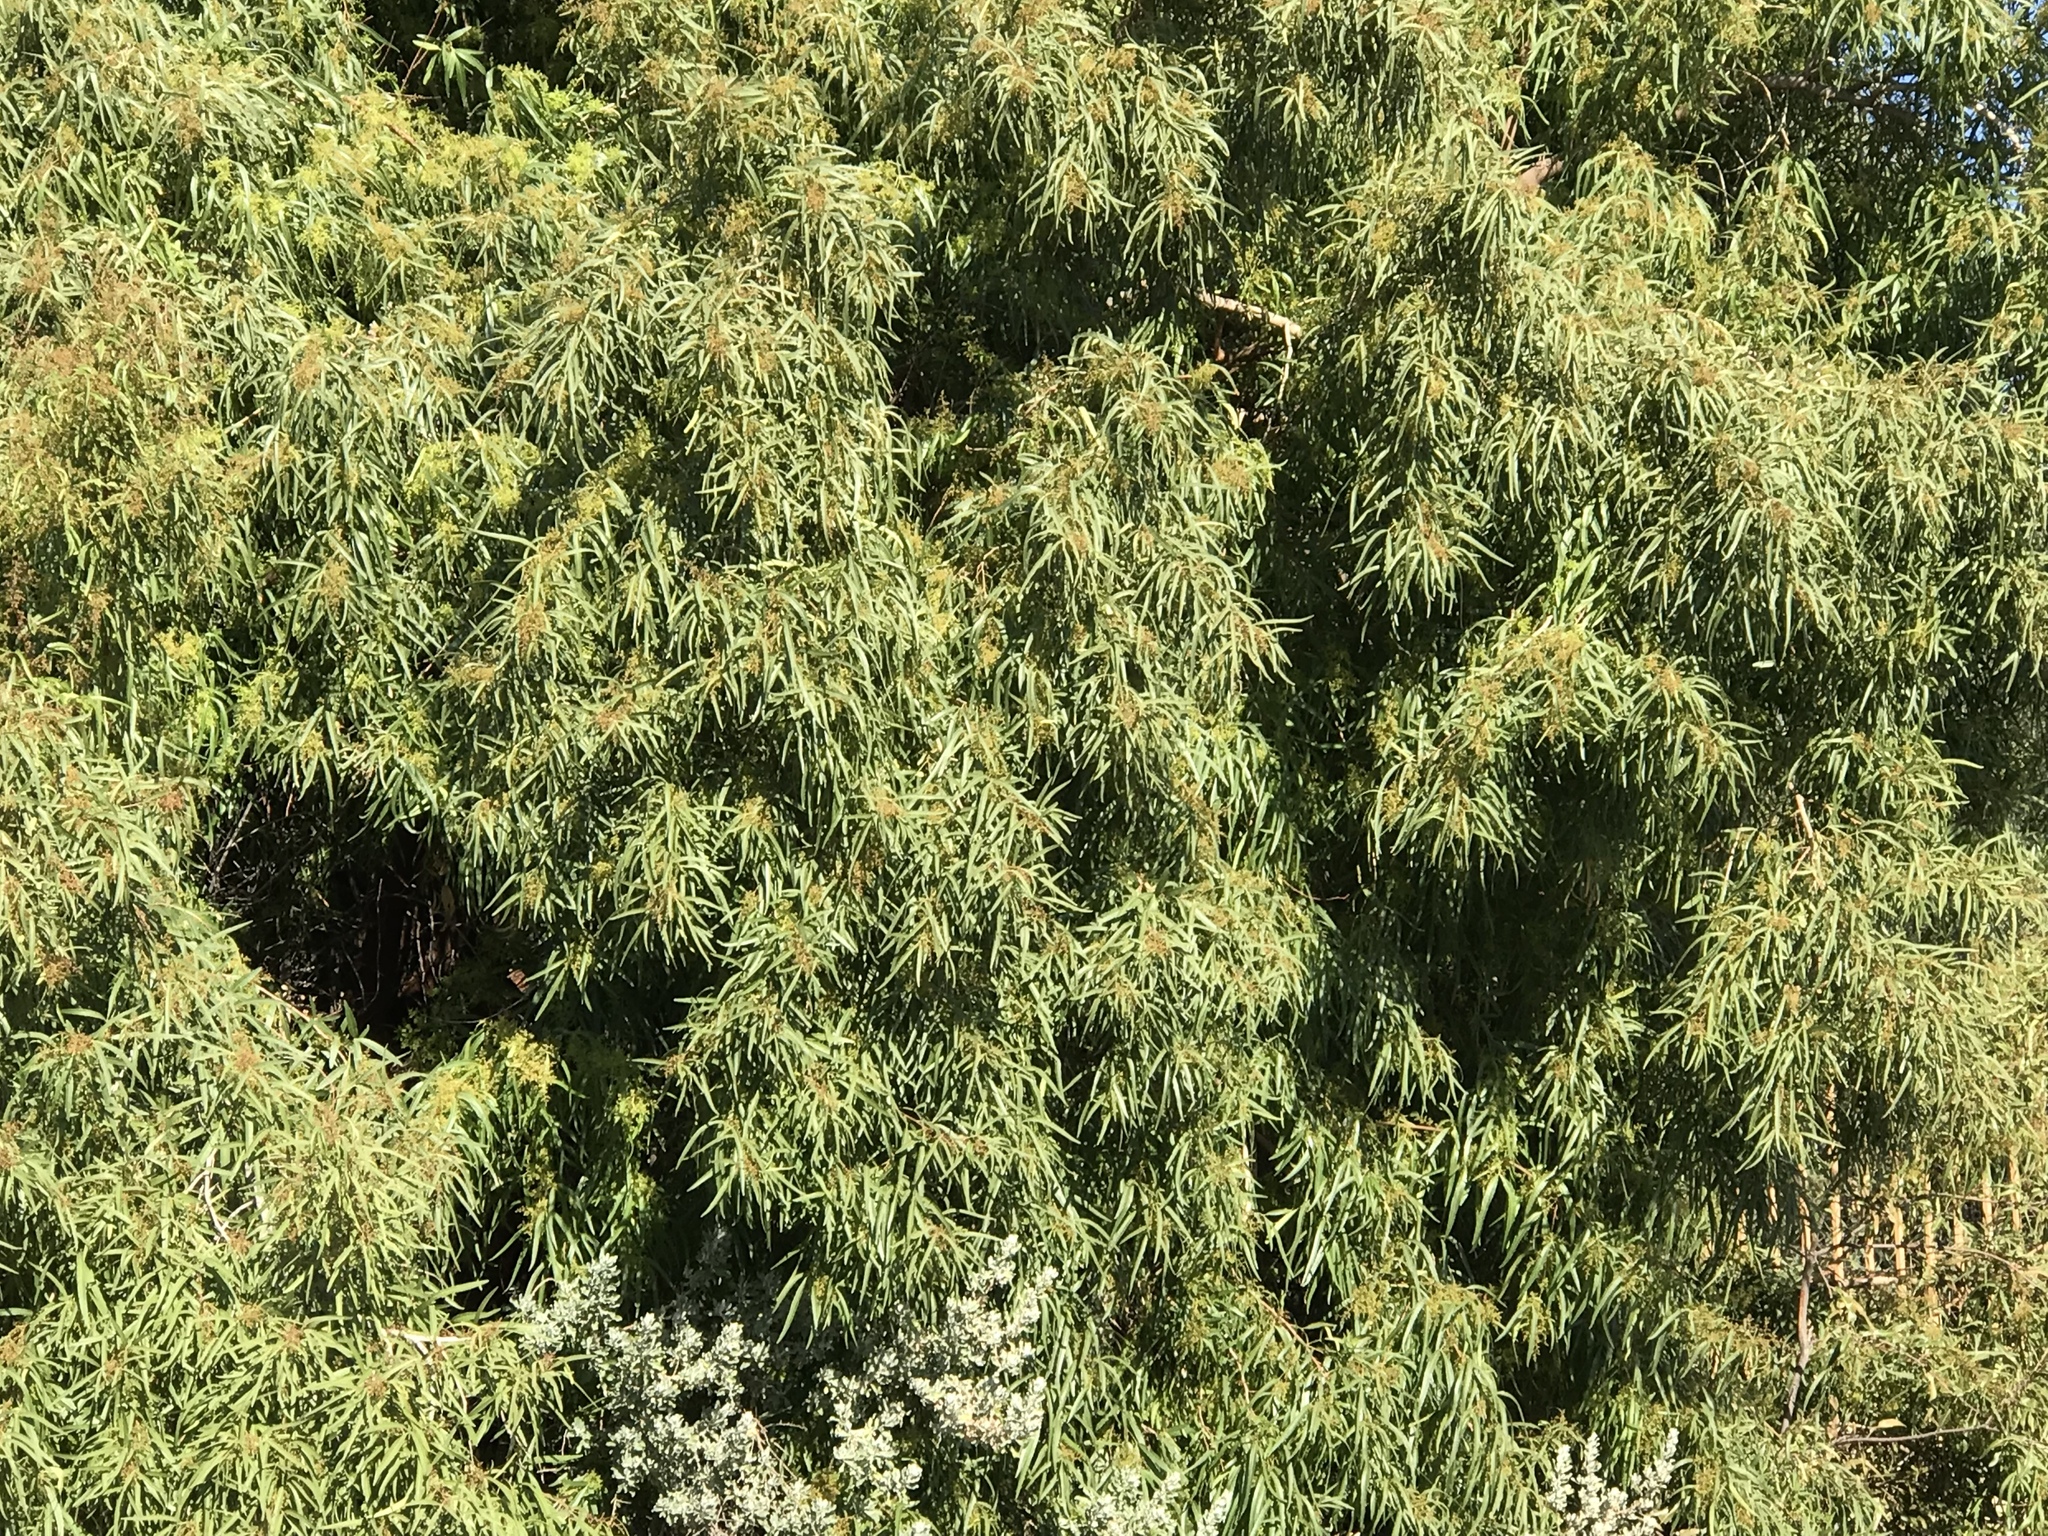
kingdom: Plantae
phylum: Tracheophyta
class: Magnoliopsida
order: Sapindales
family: Anacardiaceae
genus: Searsia
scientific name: Searsia lancea
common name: Cashew
